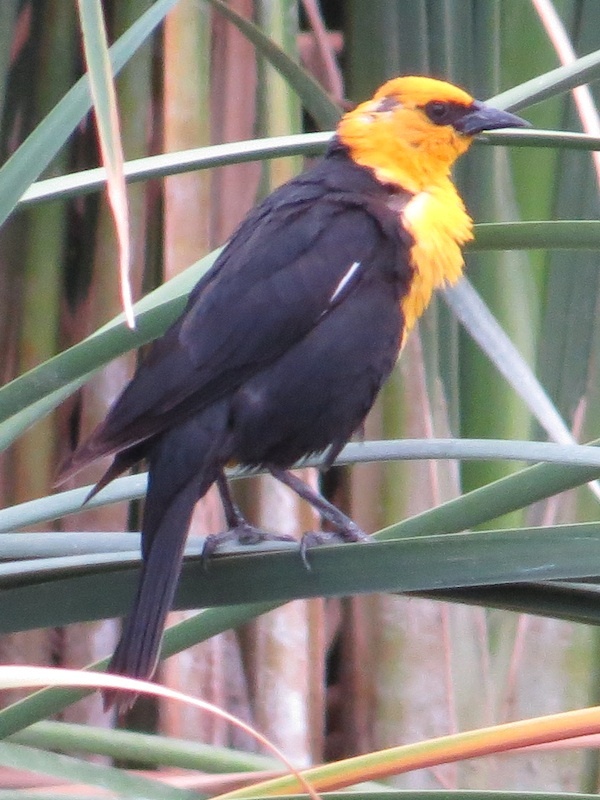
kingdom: Animalia
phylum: Chordata
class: Aves
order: Passeriformes
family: Icteridae
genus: Xanthocephalus
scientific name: Xanthocephalus xanthocephalus
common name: Yellow-headed blackbird
